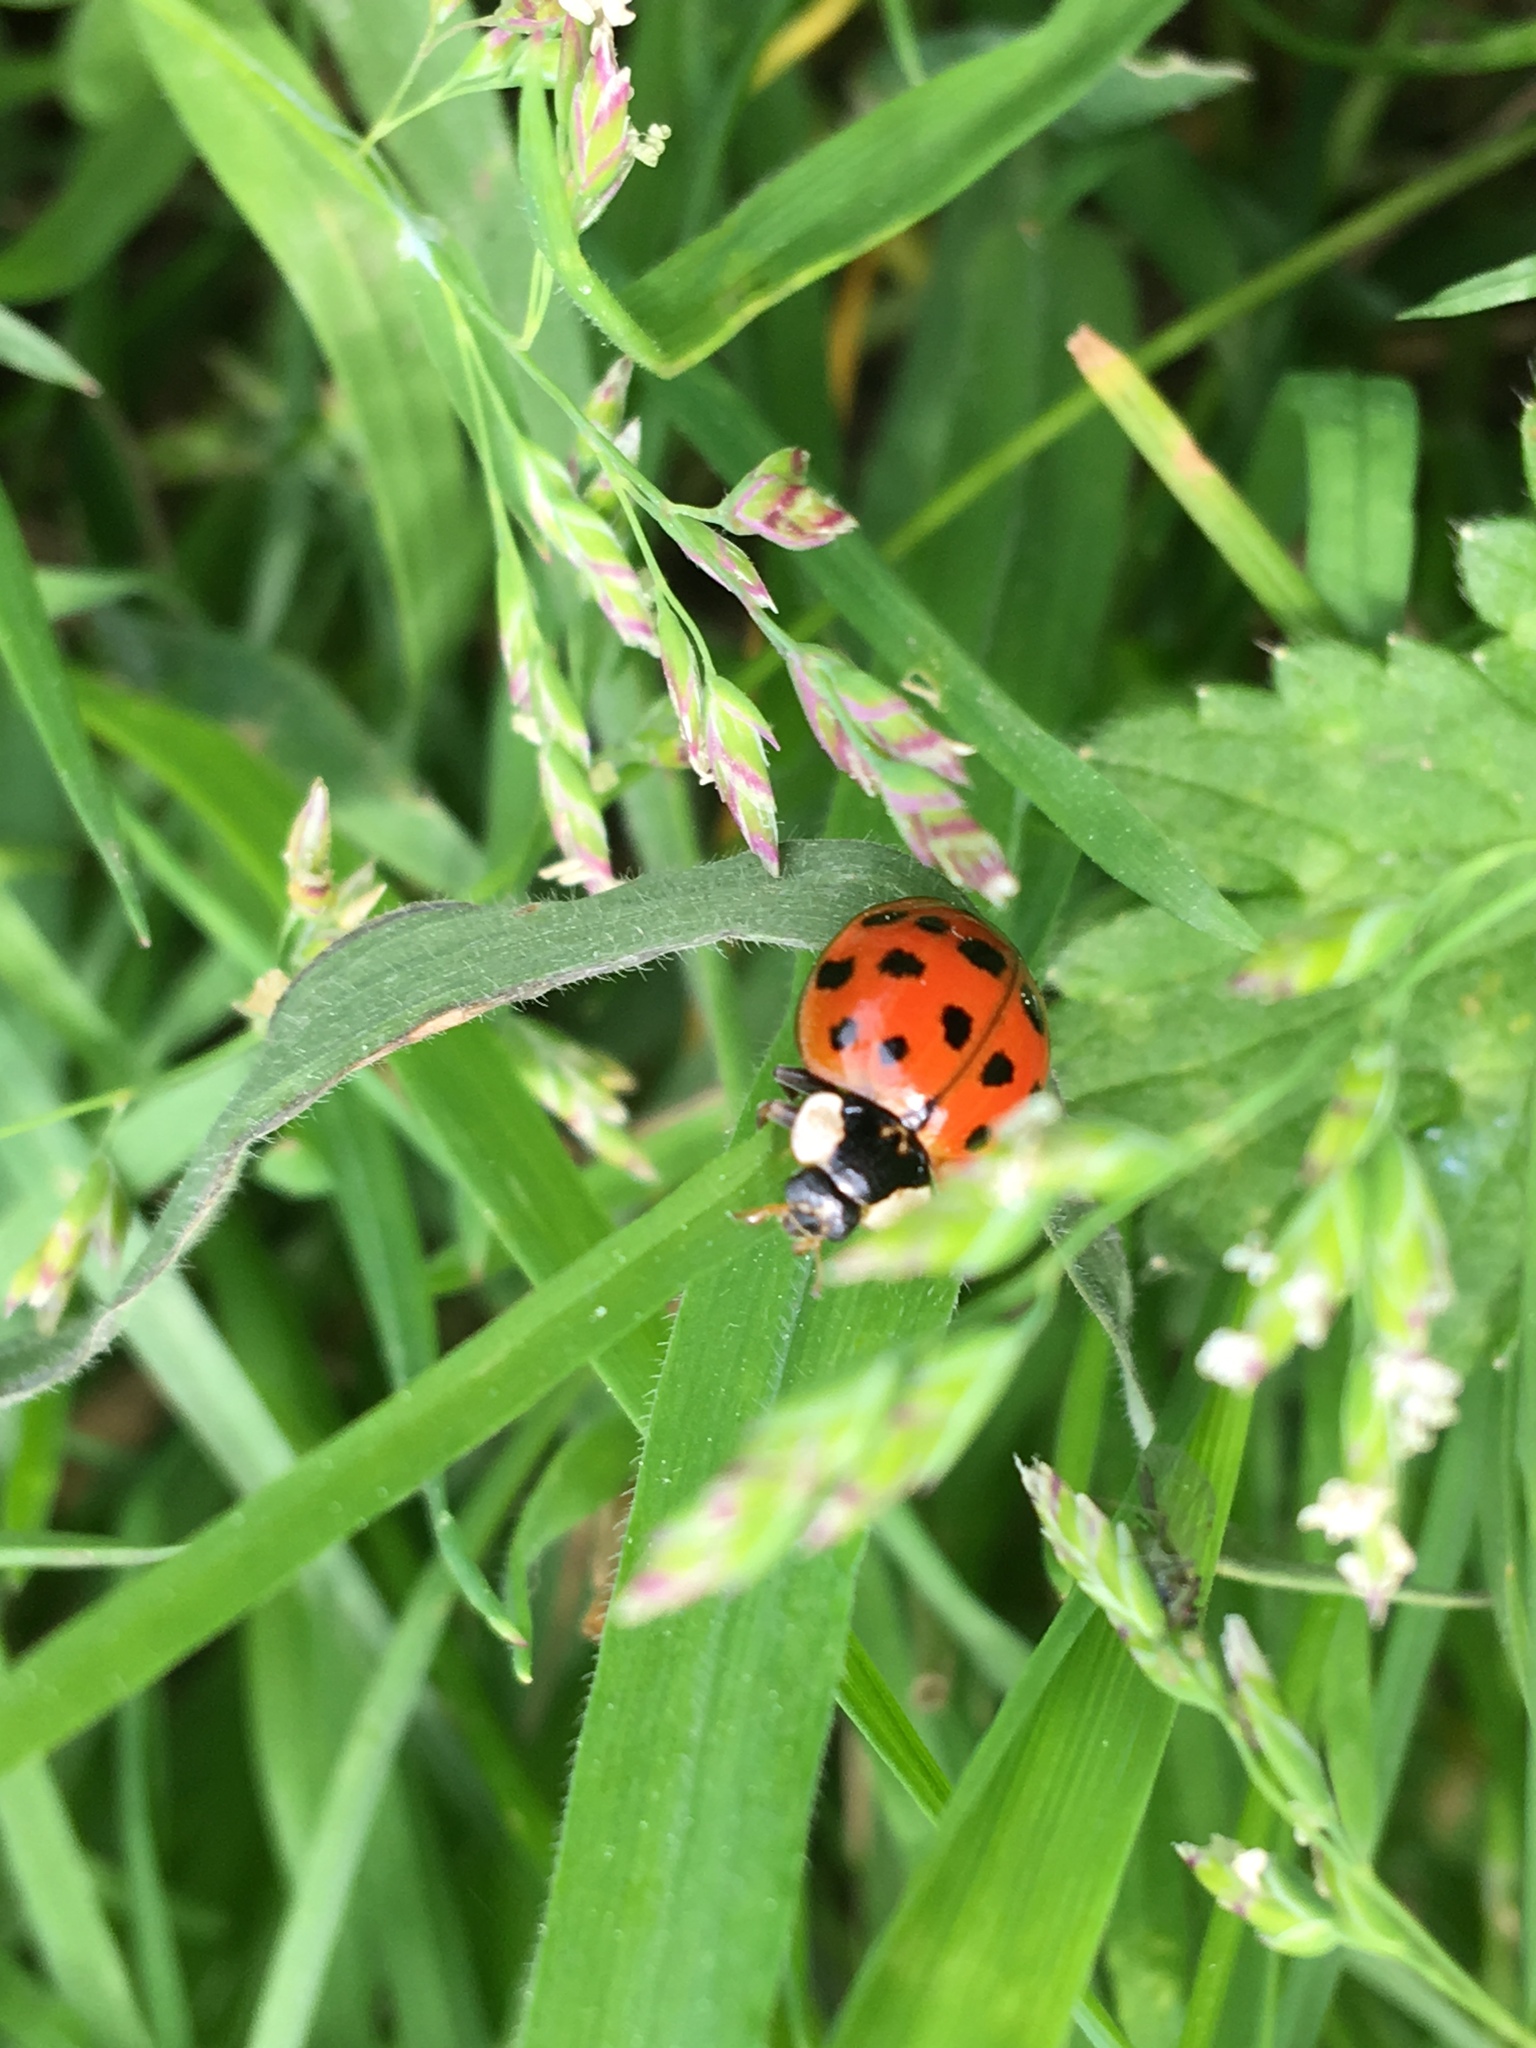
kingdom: Animalia
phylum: Arthropoda
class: Insecta
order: Coleoptera
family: Coccinellidae
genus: Harmonia
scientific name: Harmonia axyridis
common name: Harlequin ladybird
